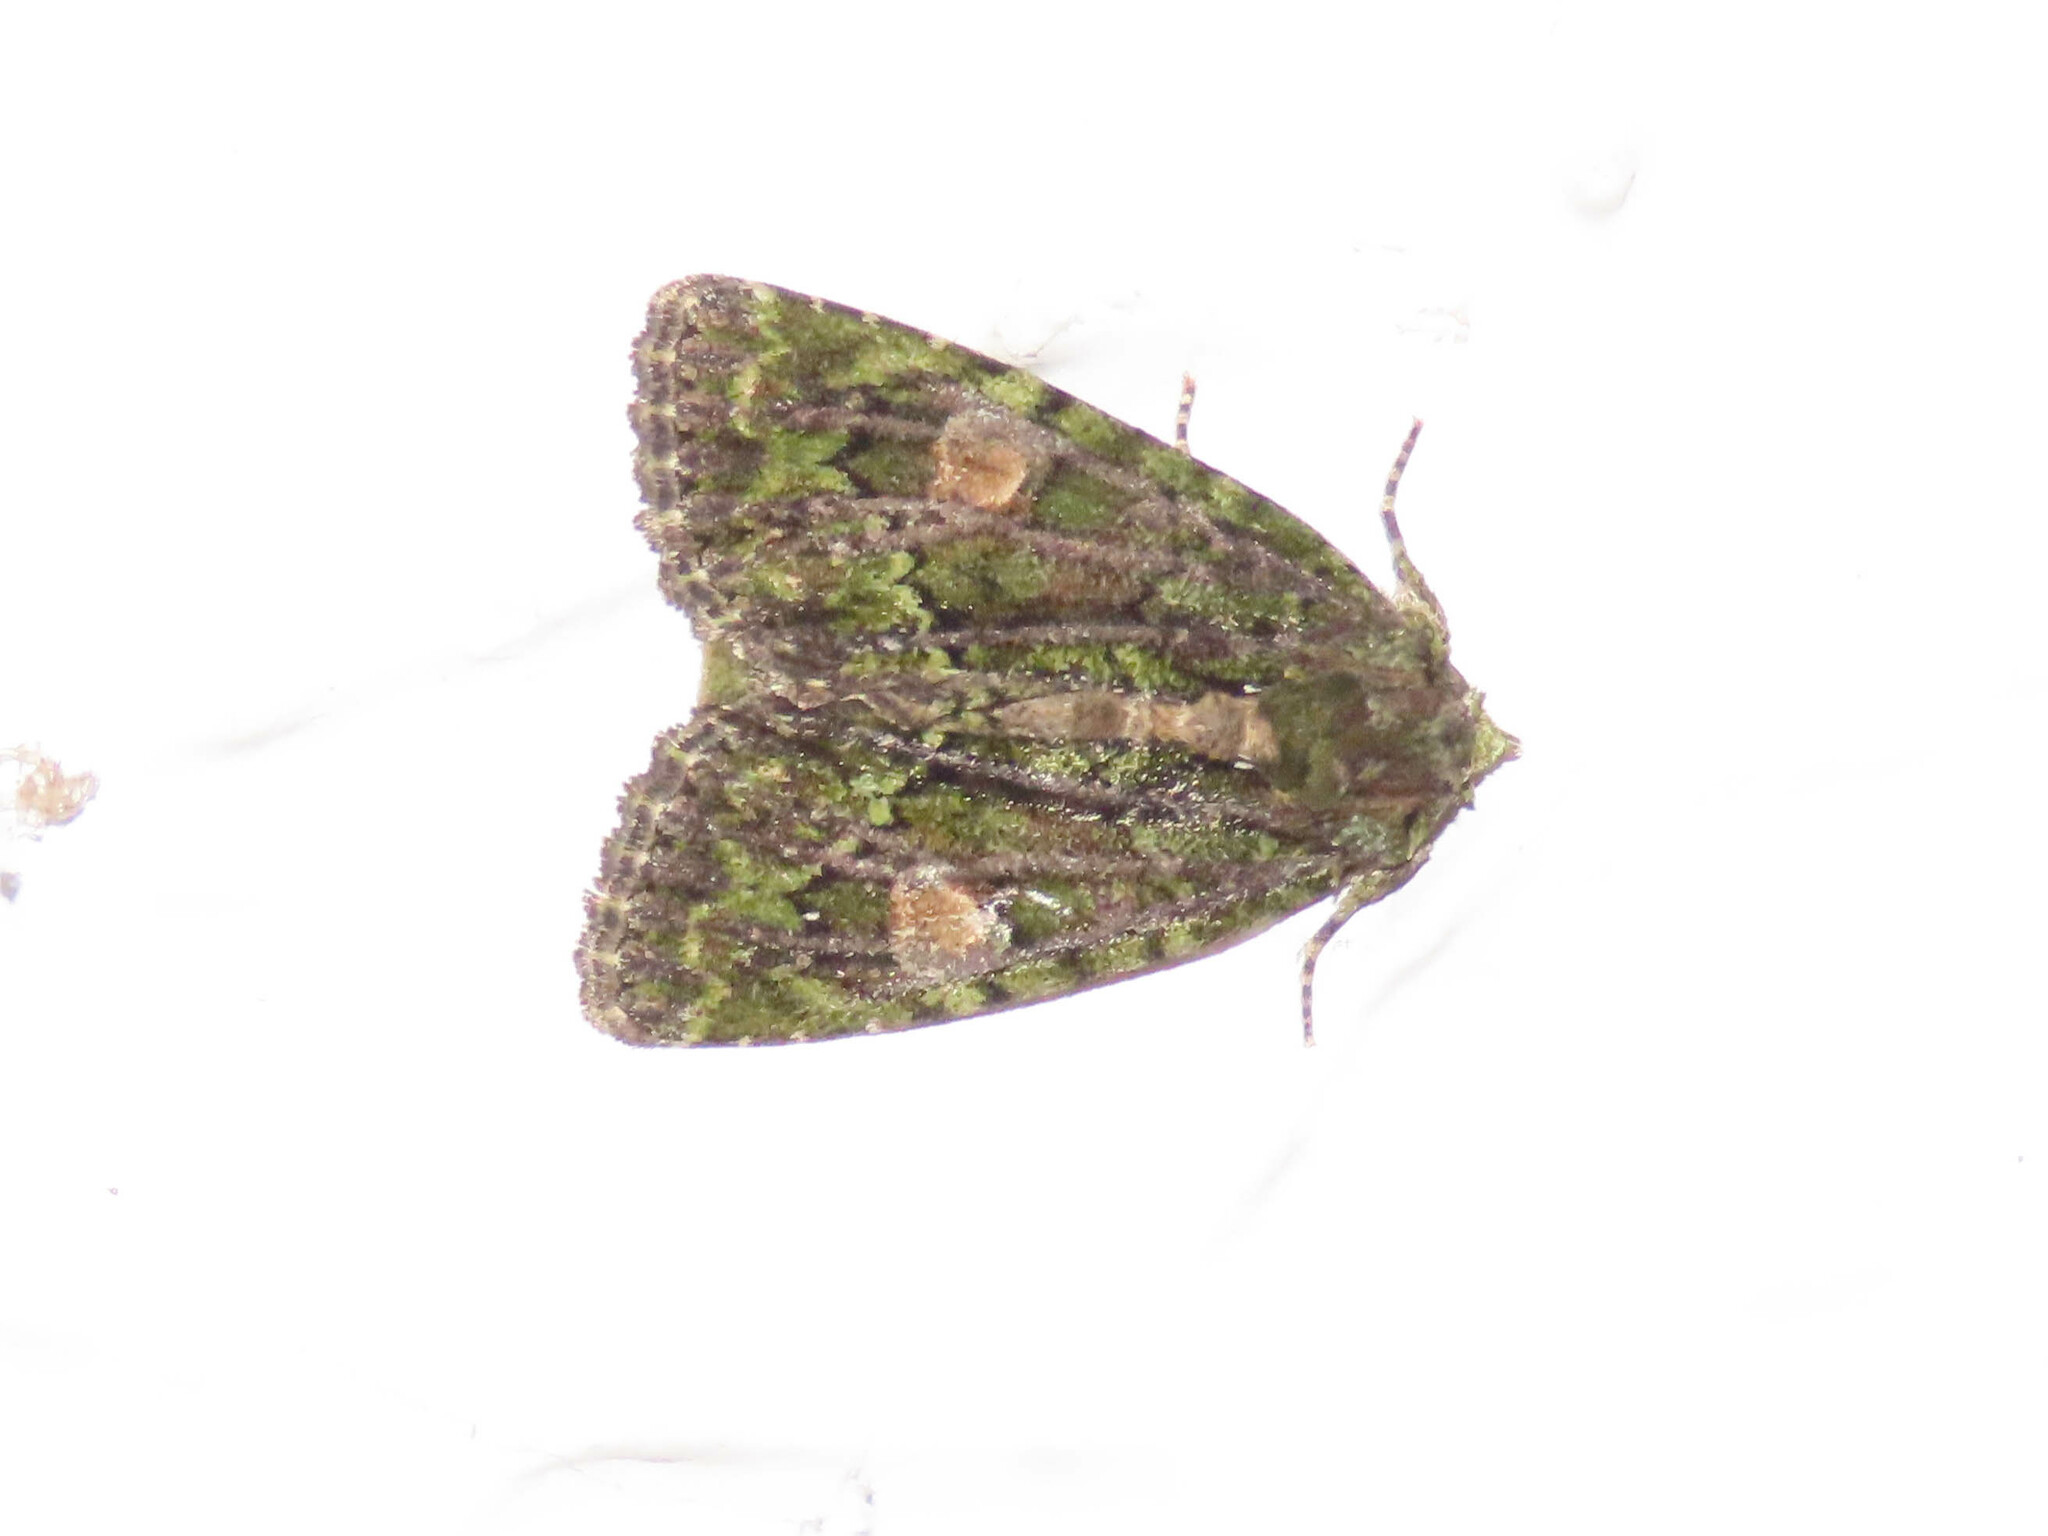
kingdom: Animalia
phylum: Arthropoda
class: Insecta
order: Lepidoptera
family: Noctuidae
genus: Phosphila
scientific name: Phosphila miselioides
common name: Spotted phosphila moth
